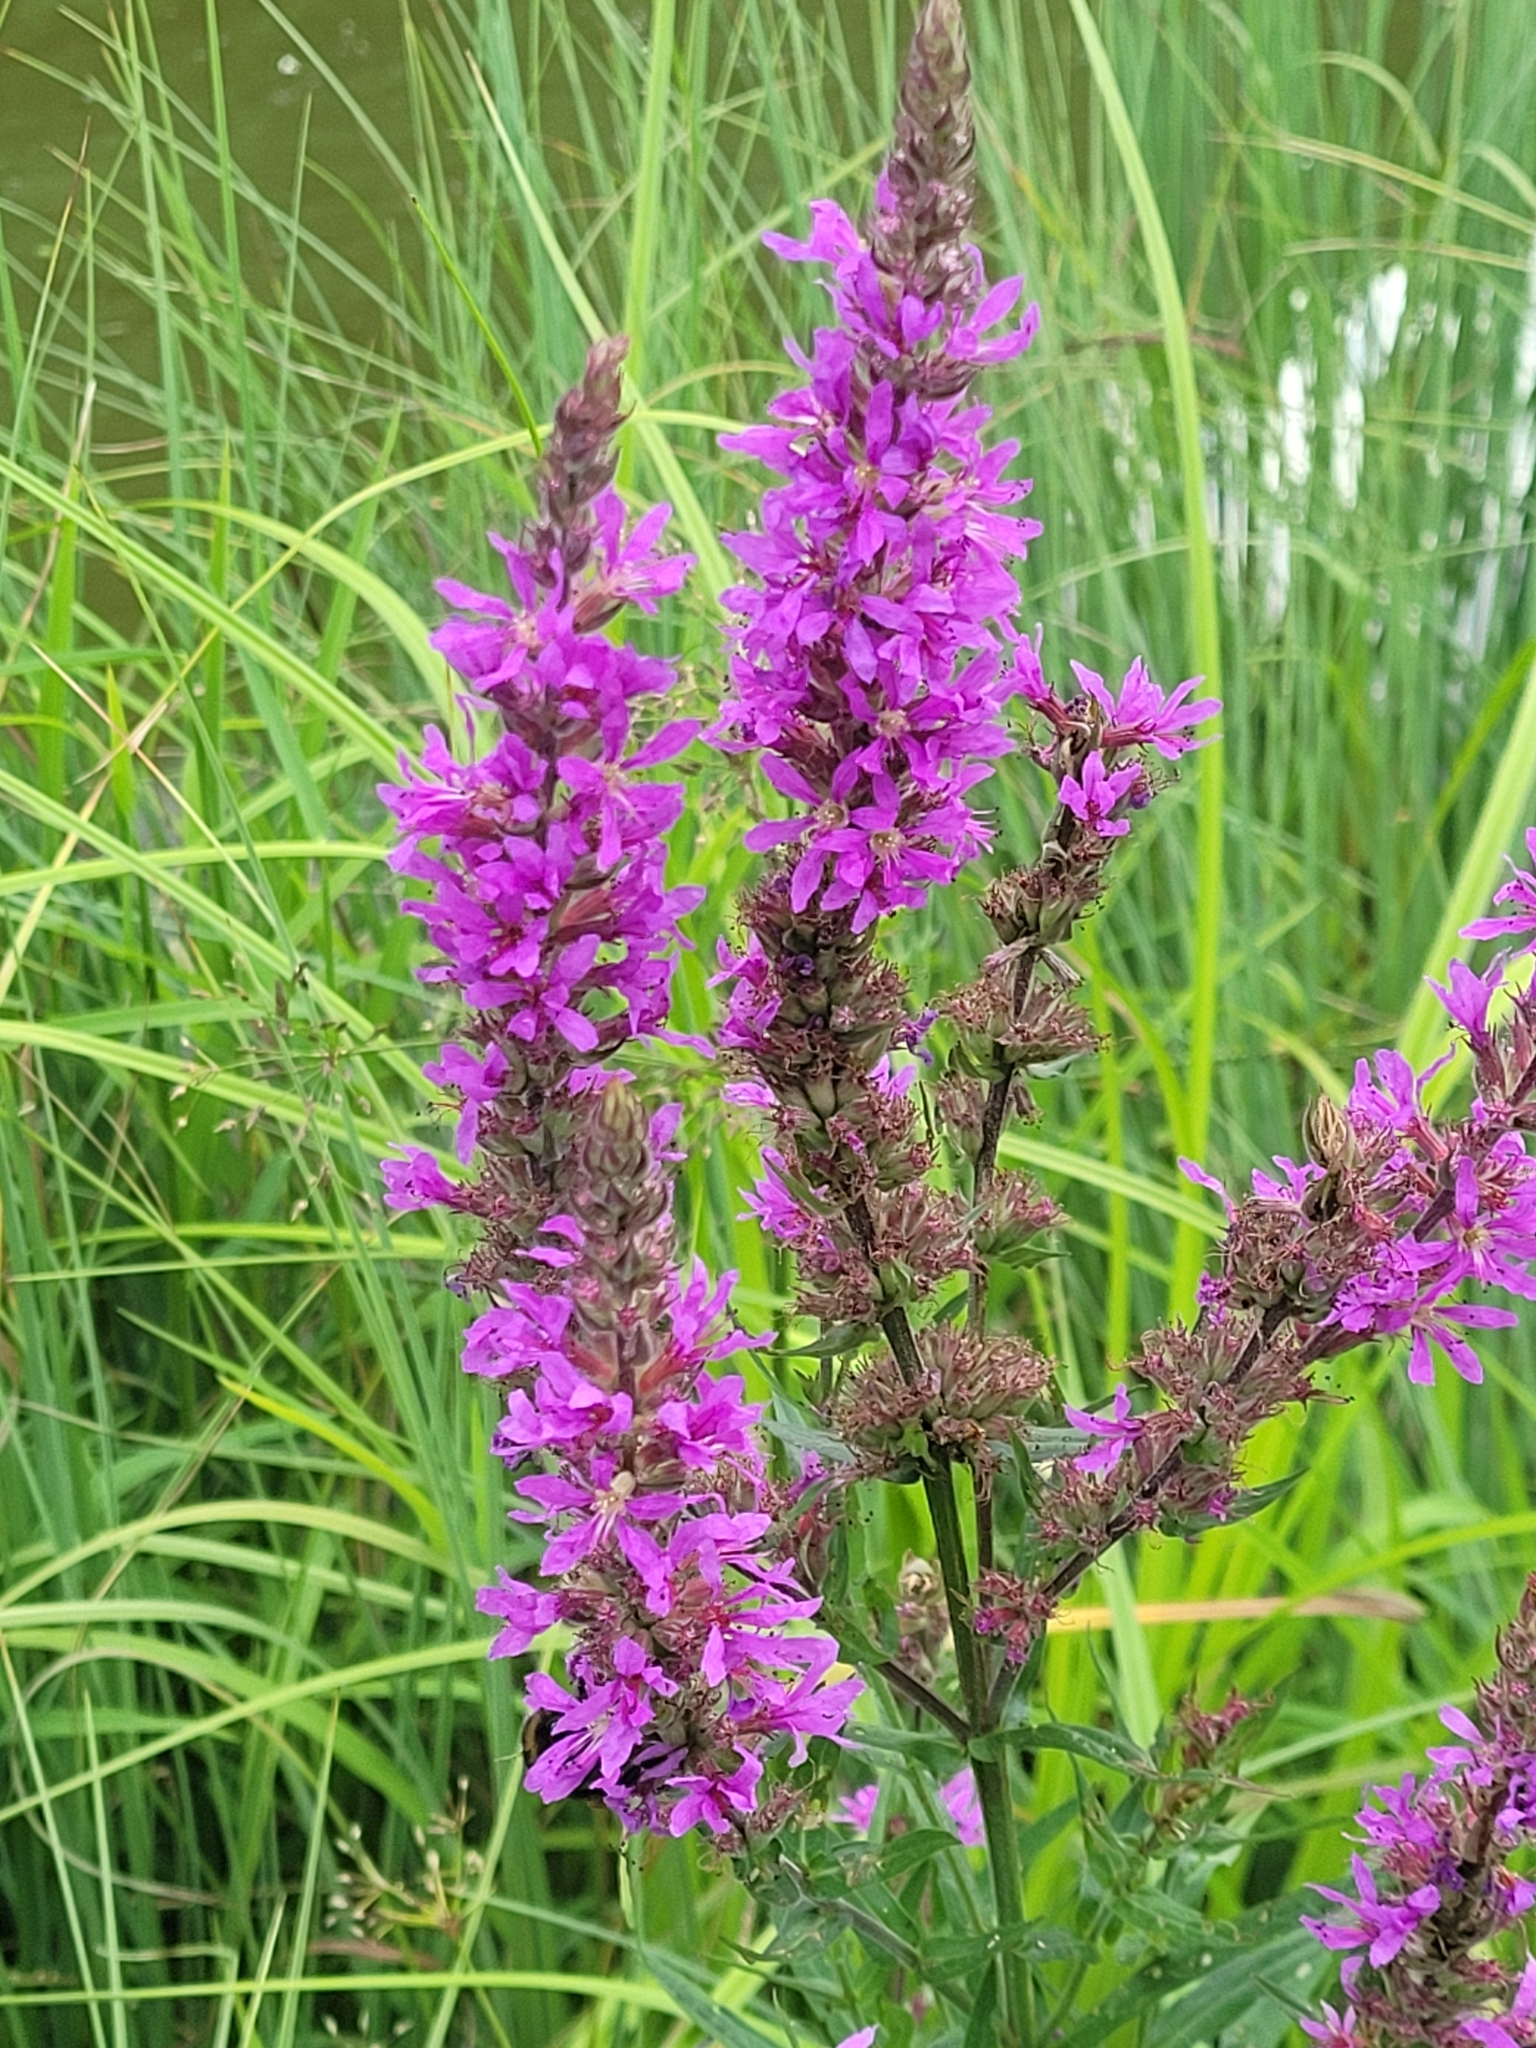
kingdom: Plantae
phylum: Tracheophyta
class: Magnoliopsida
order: Myrtales
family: Lythraceae
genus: Lythrum
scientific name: Lythrum salicaria
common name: Purple loosestrife
